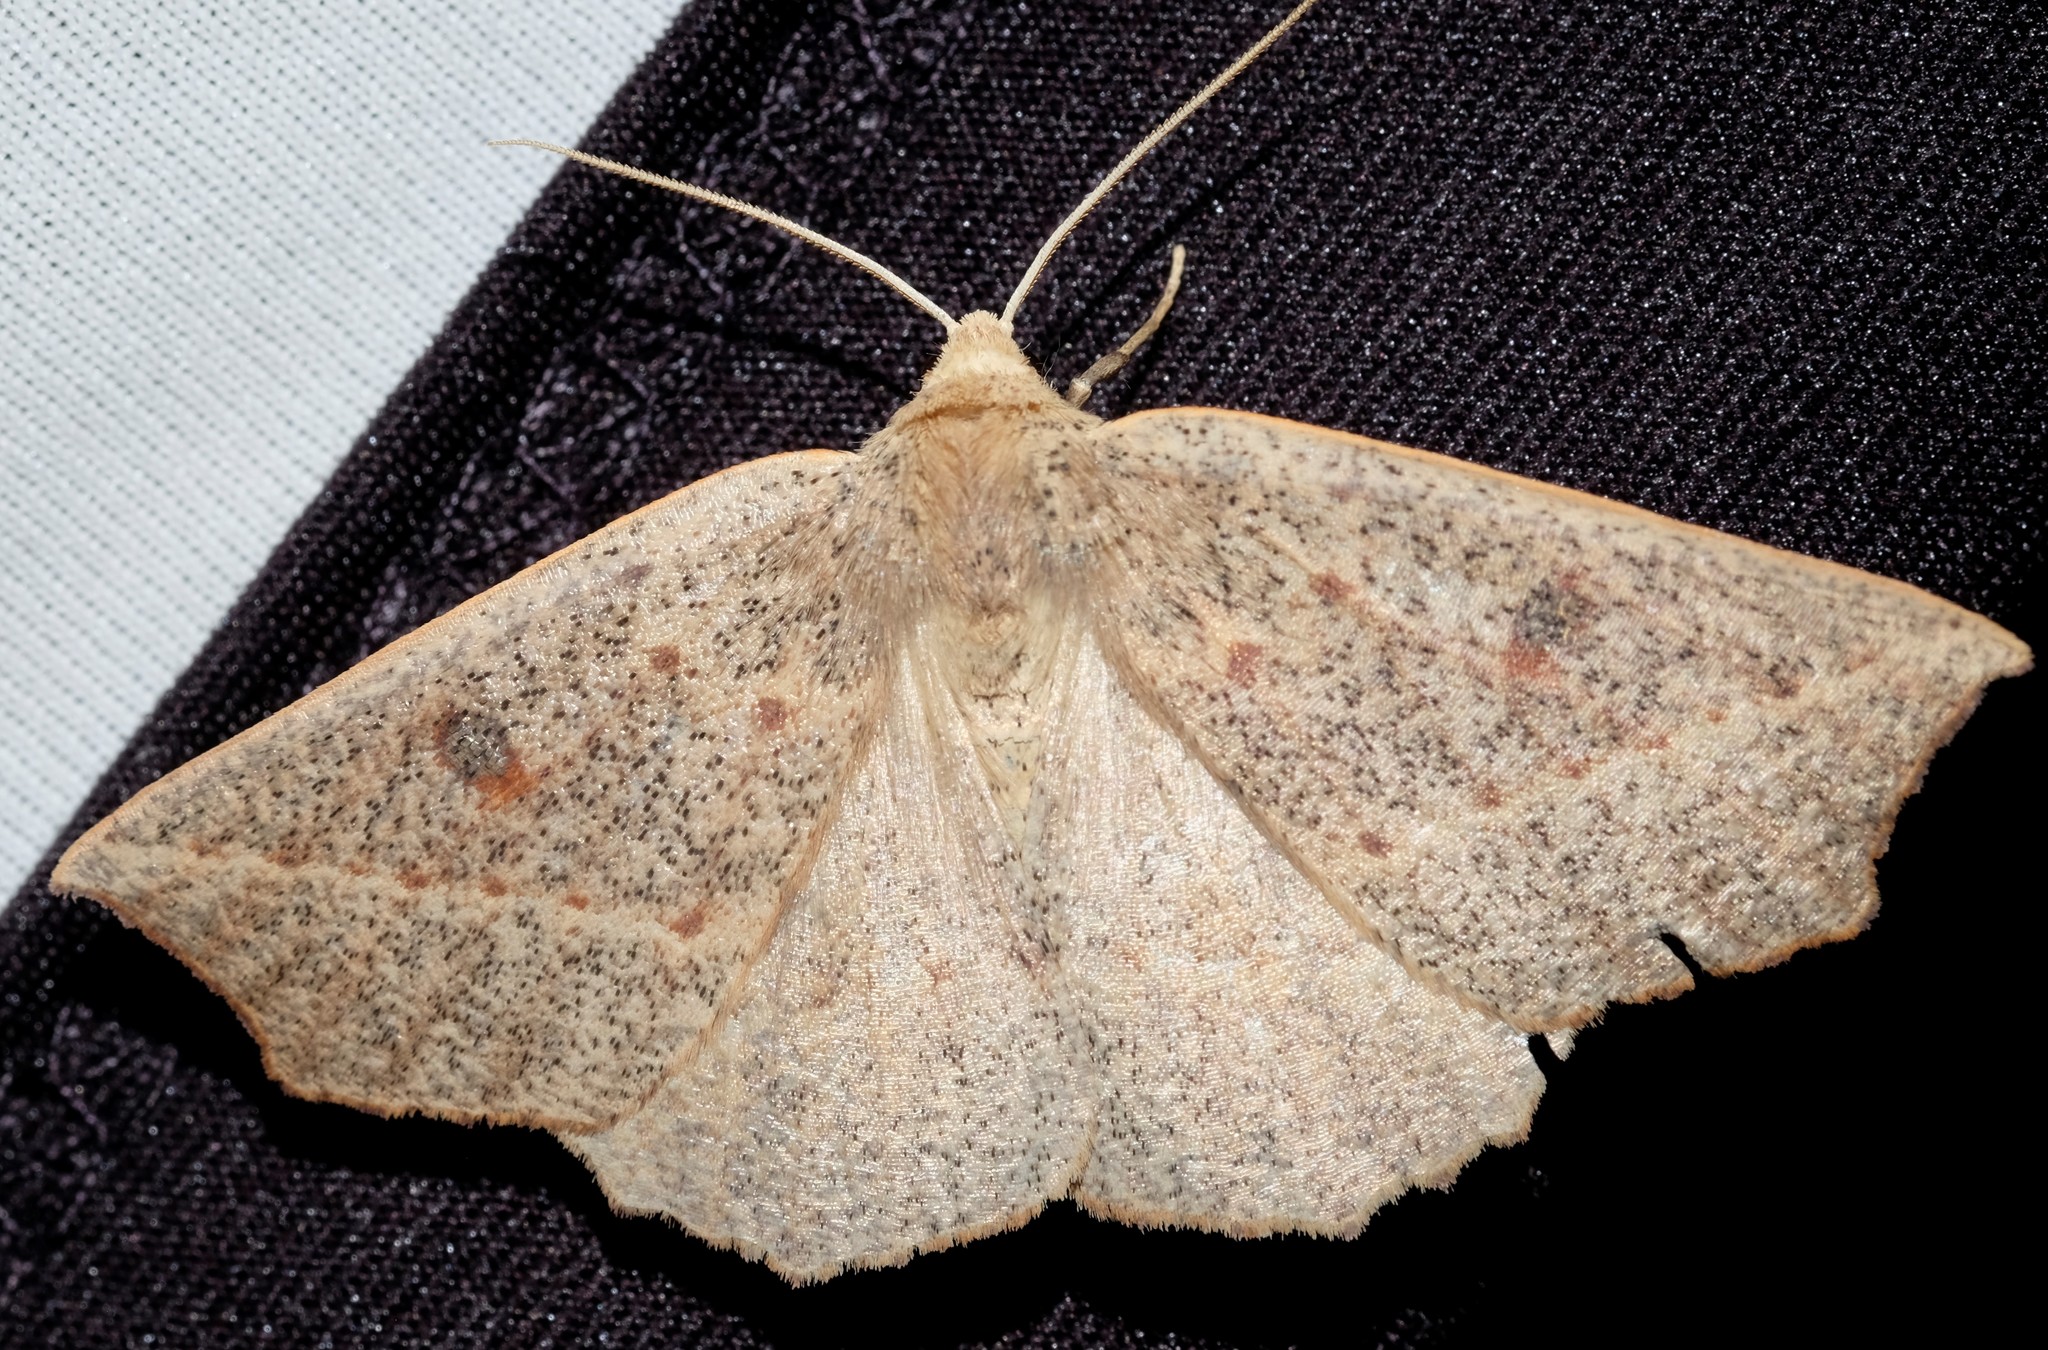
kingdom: Animalia
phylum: Arthropoda
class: Insecta
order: Lepidoptera
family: Geometridae
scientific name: Geometridae
